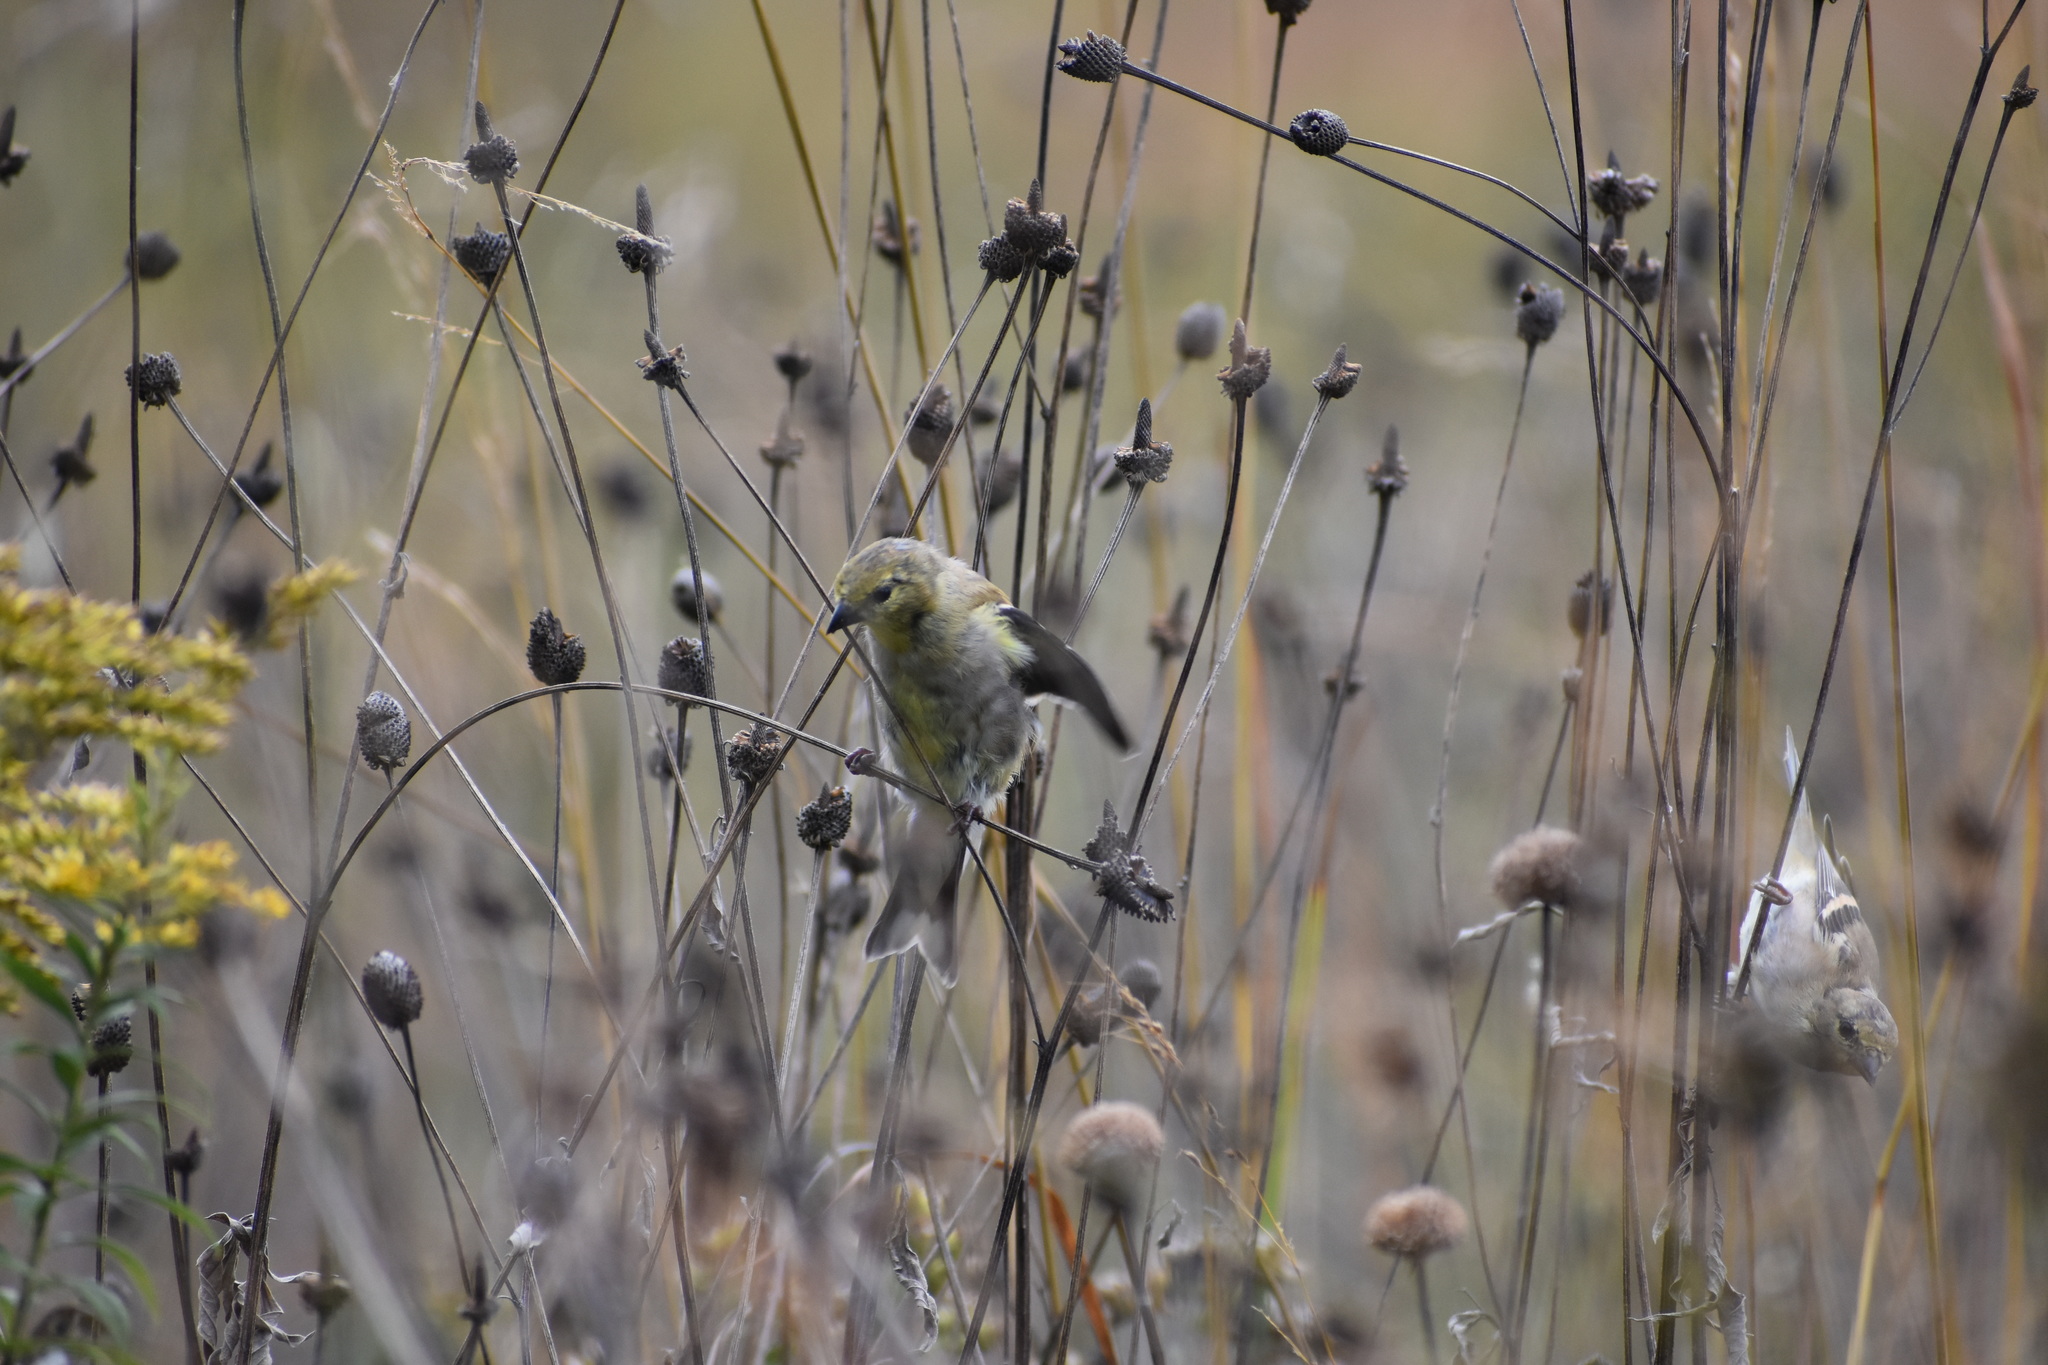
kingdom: Animalia
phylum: Chordata
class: Aves
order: Passeriformes
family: Fringillidae
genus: Spinus
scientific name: Spinus tristis
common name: American goldfinch
